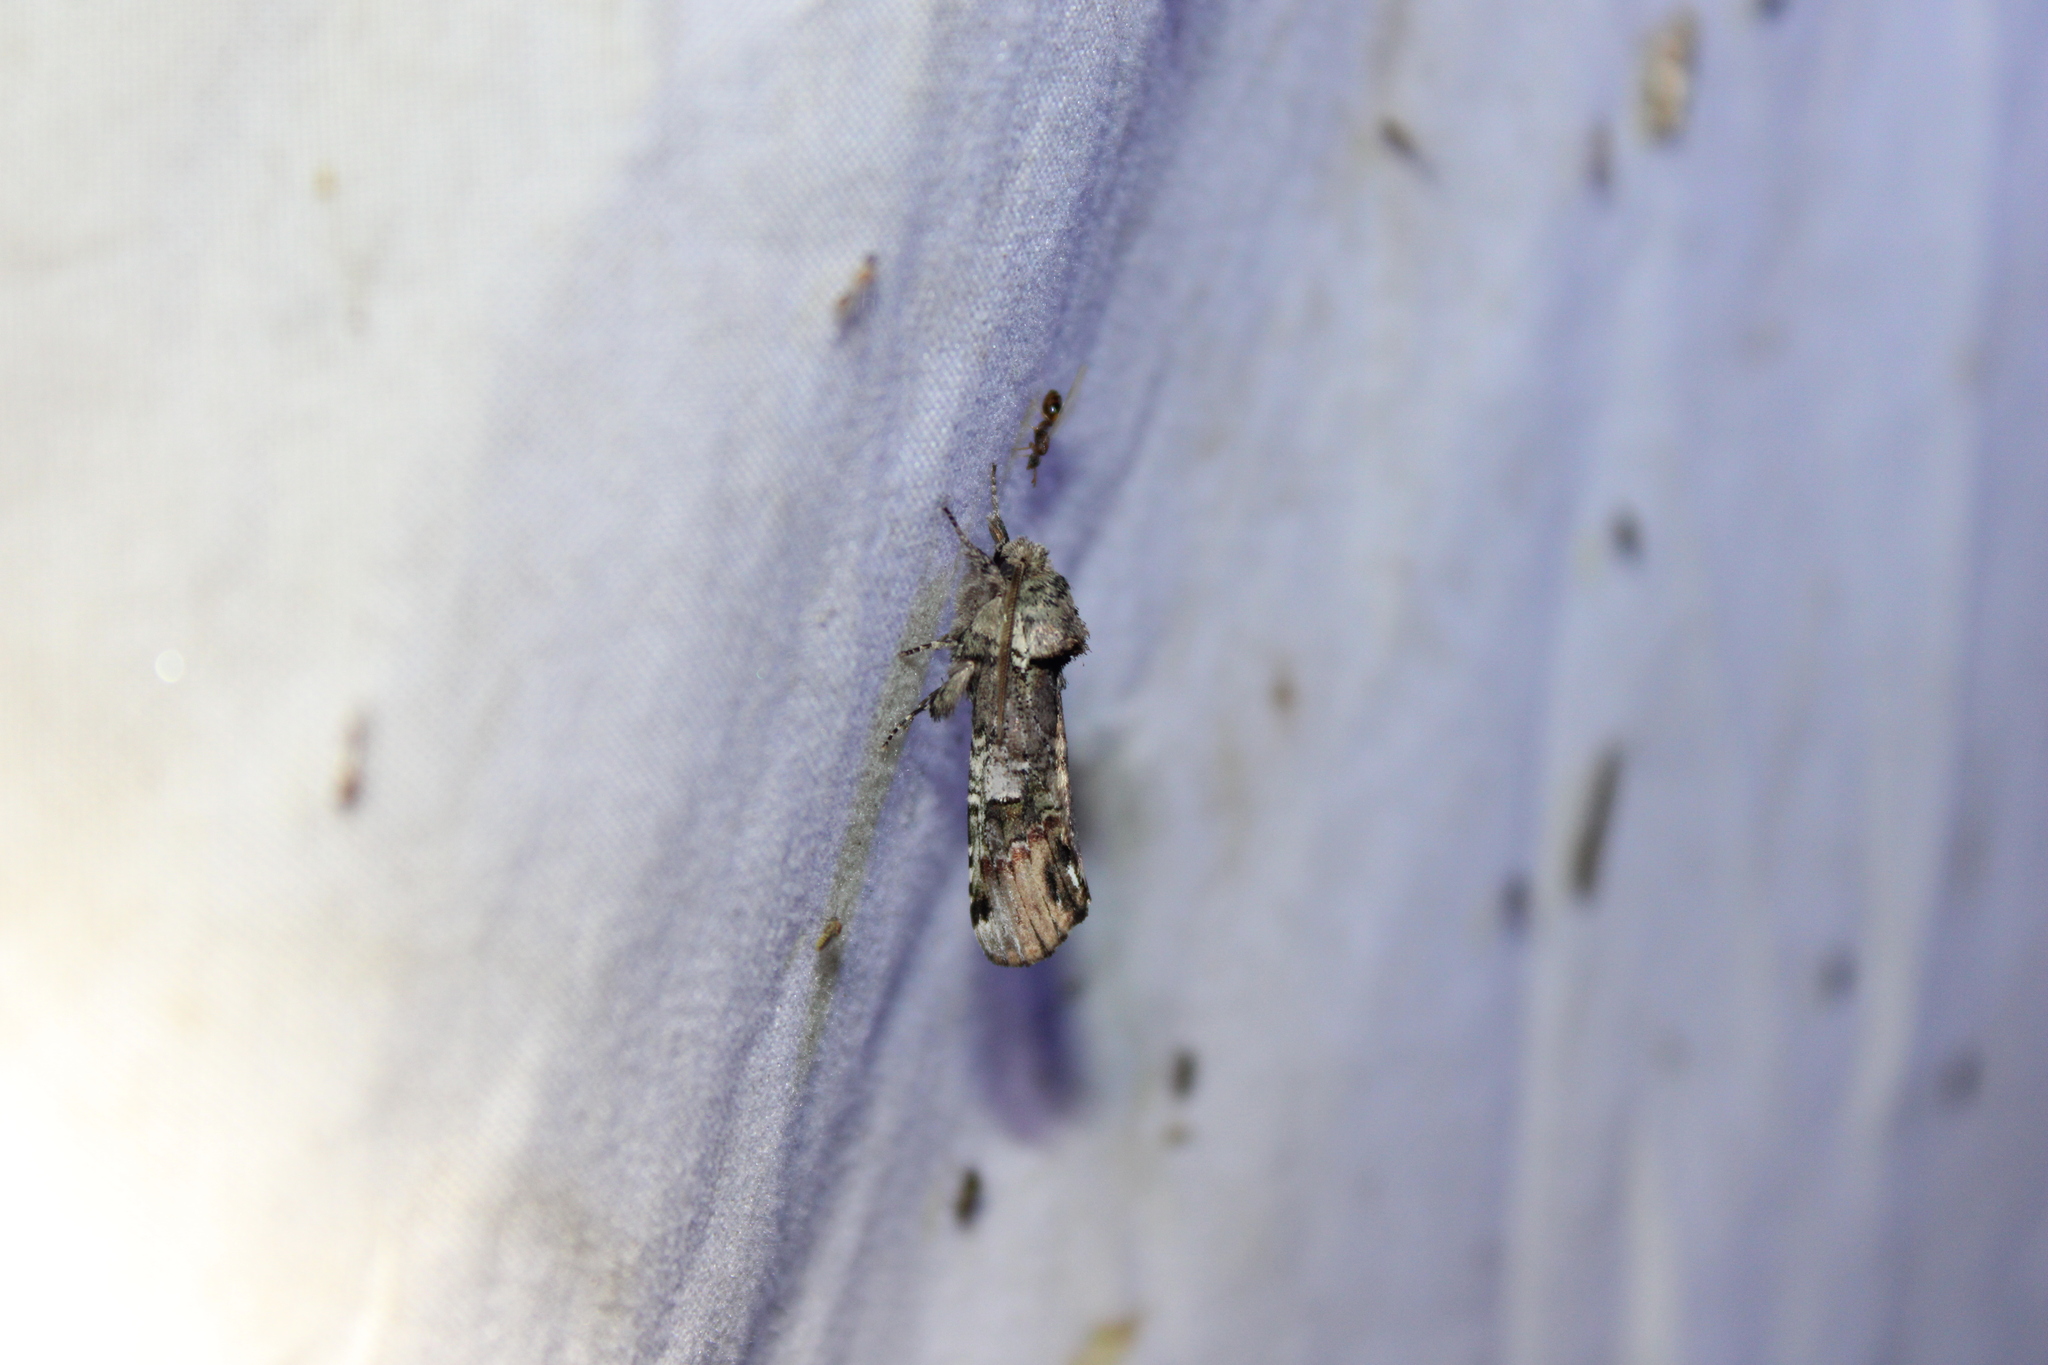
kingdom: Animalia
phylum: Arthropoda
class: Insecta
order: Lepidoptera
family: Notodontidae
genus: Schizura
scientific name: Schizura
